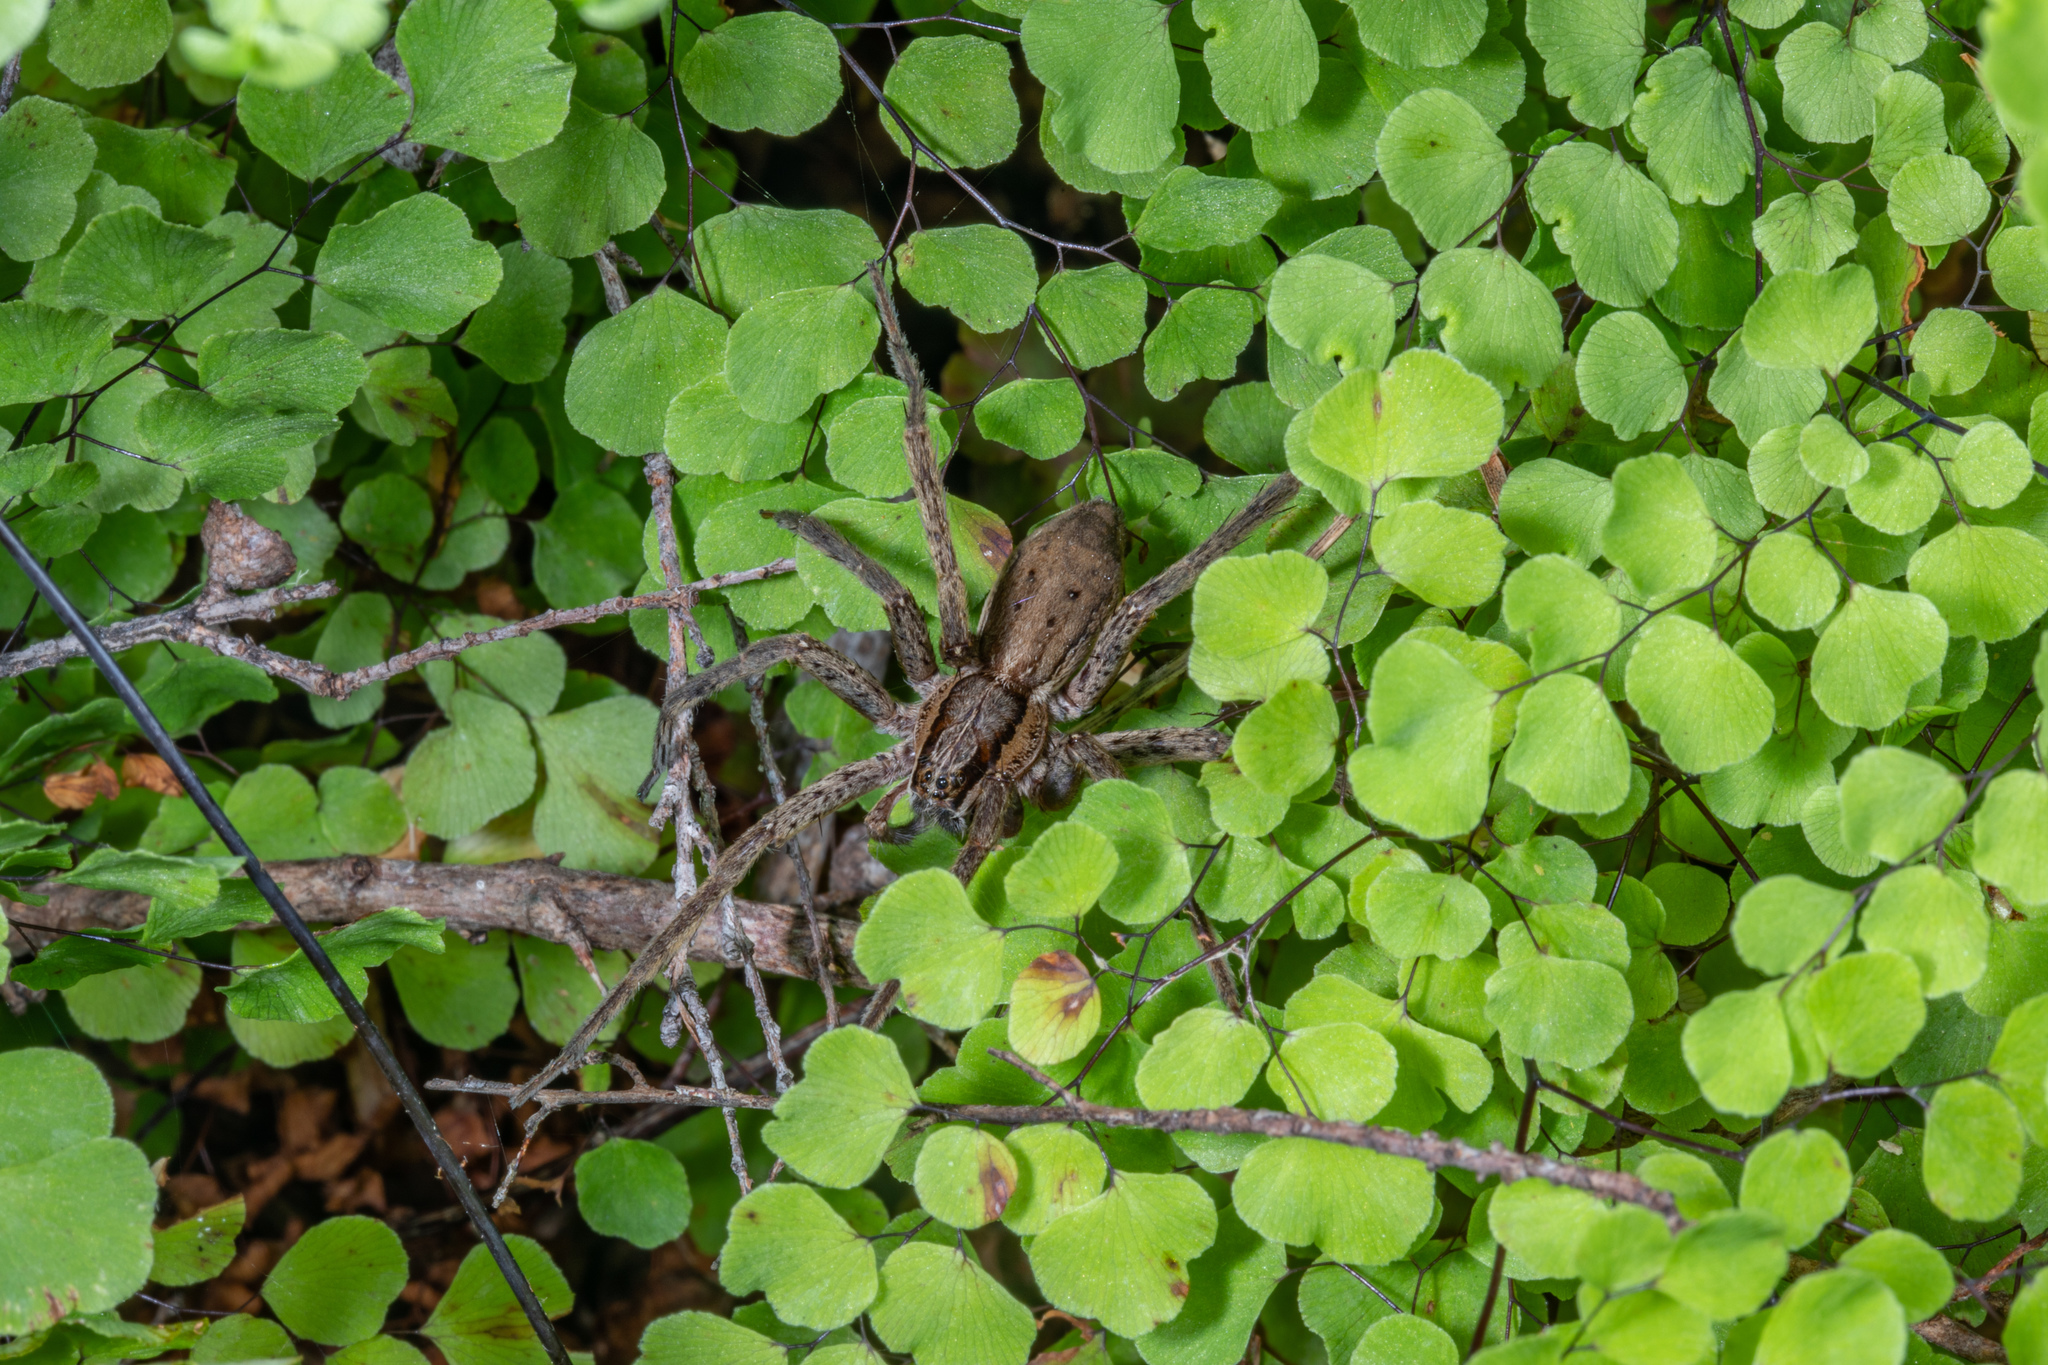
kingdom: Animalia
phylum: Arthropoda
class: Arachnida
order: Araneae
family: Pisauridae
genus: Dolomedes
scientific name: Dolomedes minor
